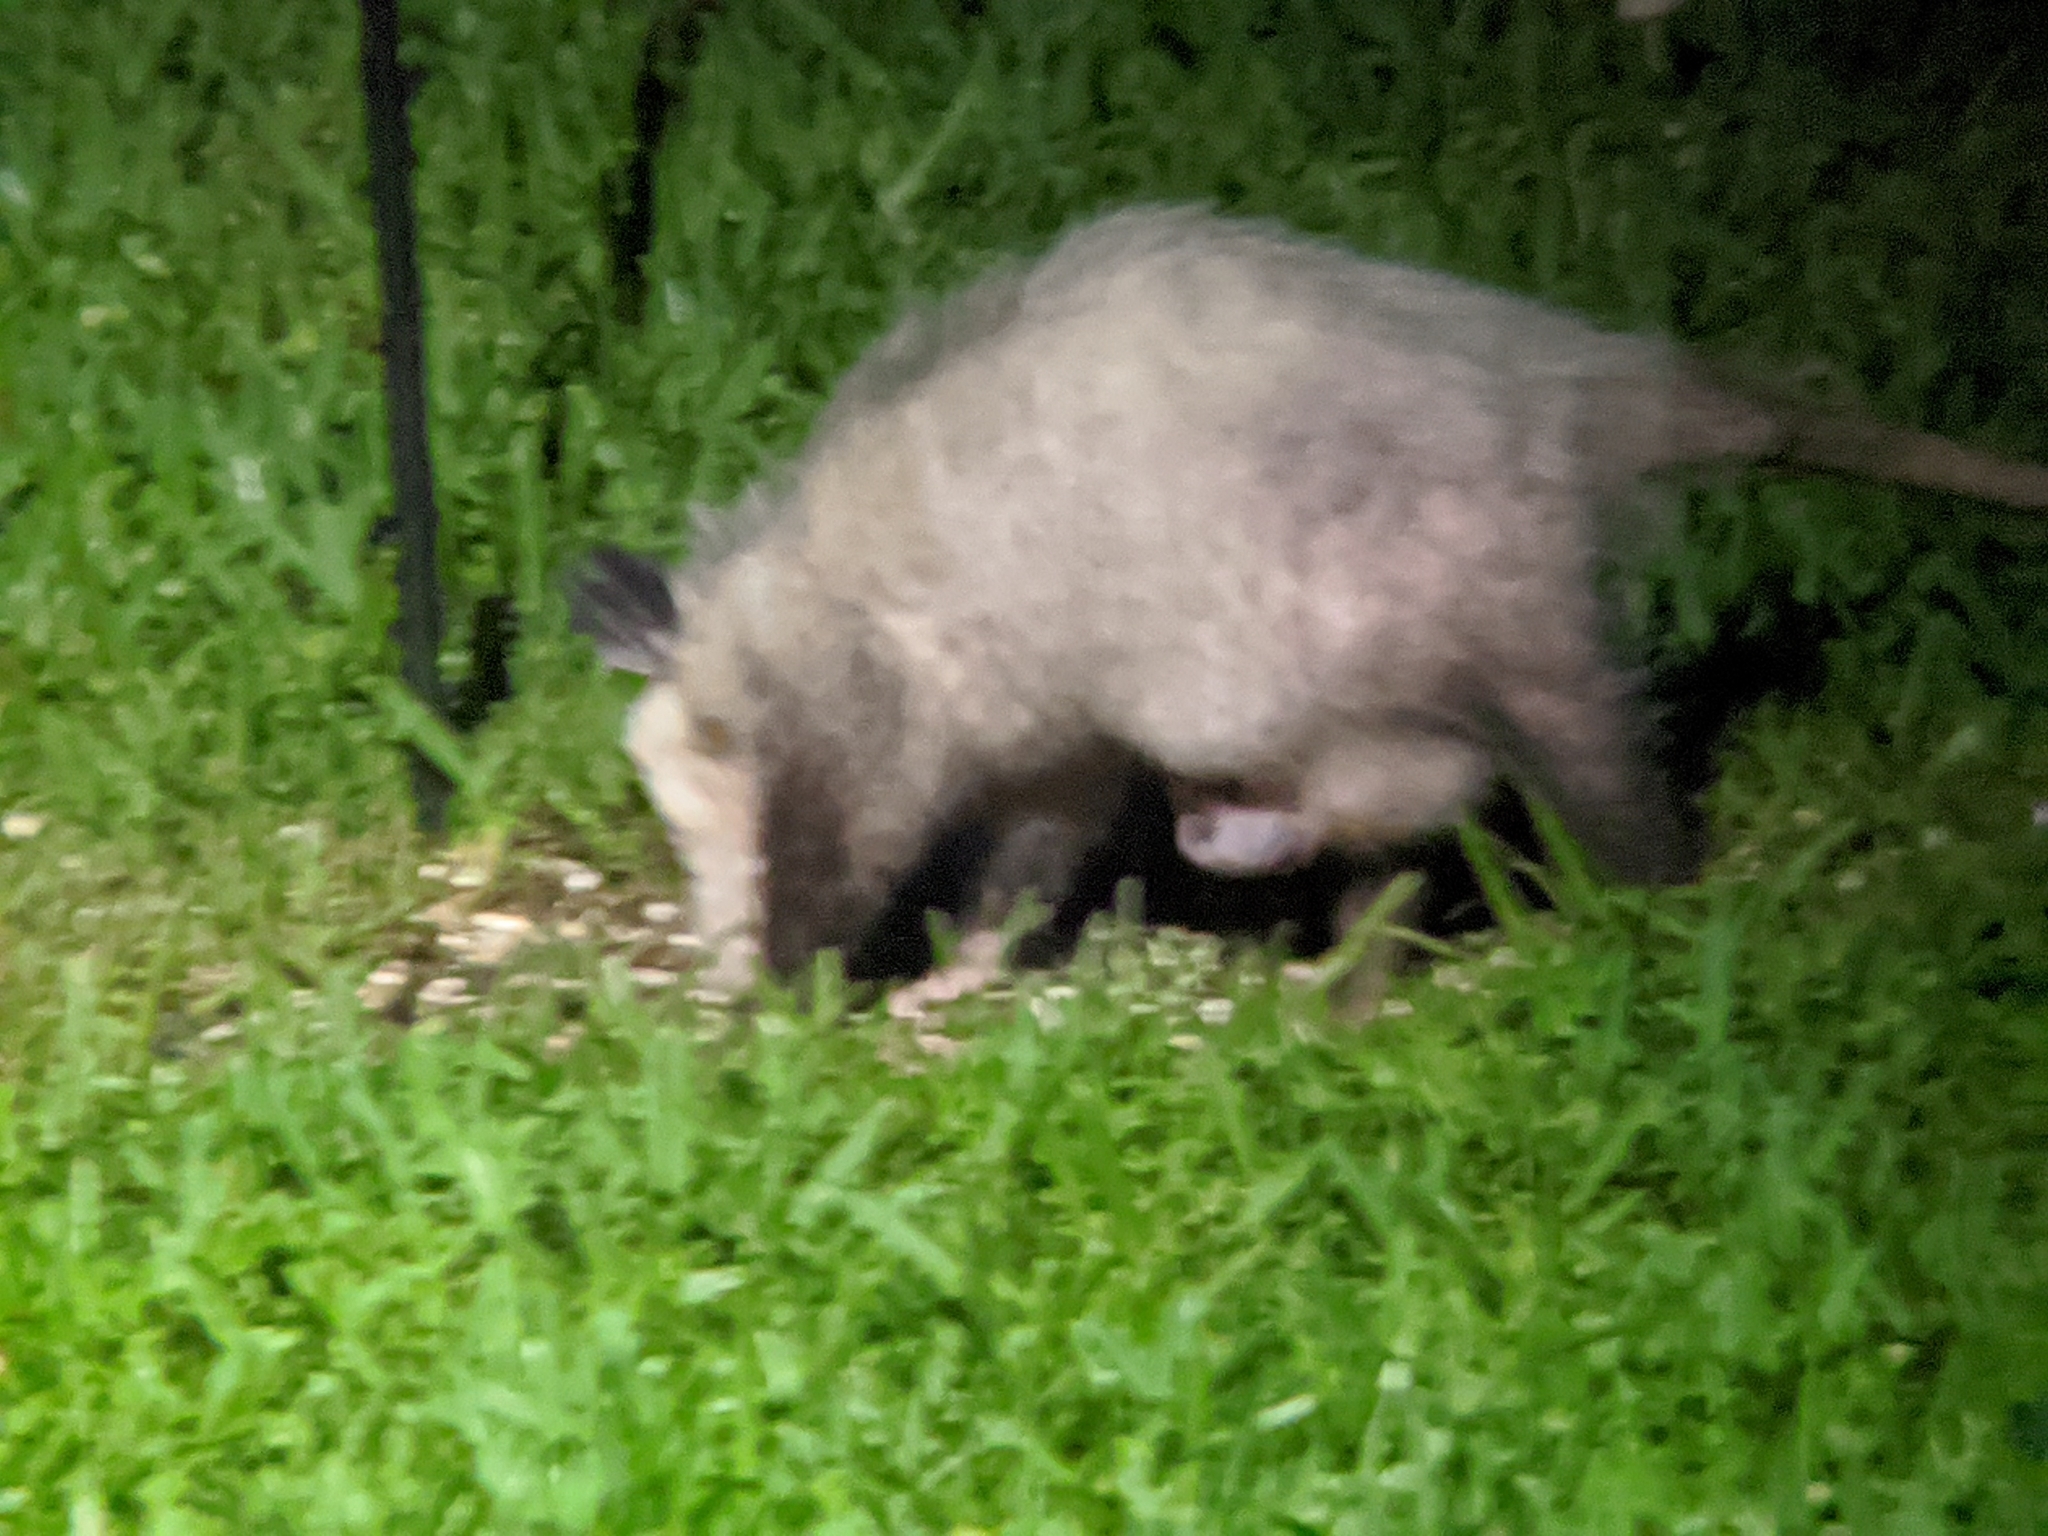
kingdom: Animalia
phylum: Chordata
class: Mammalia
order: Didelphimorphia
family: Didelphidae
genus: Didelphis
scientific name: Didelphis virginiana
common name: Virginia opossum
